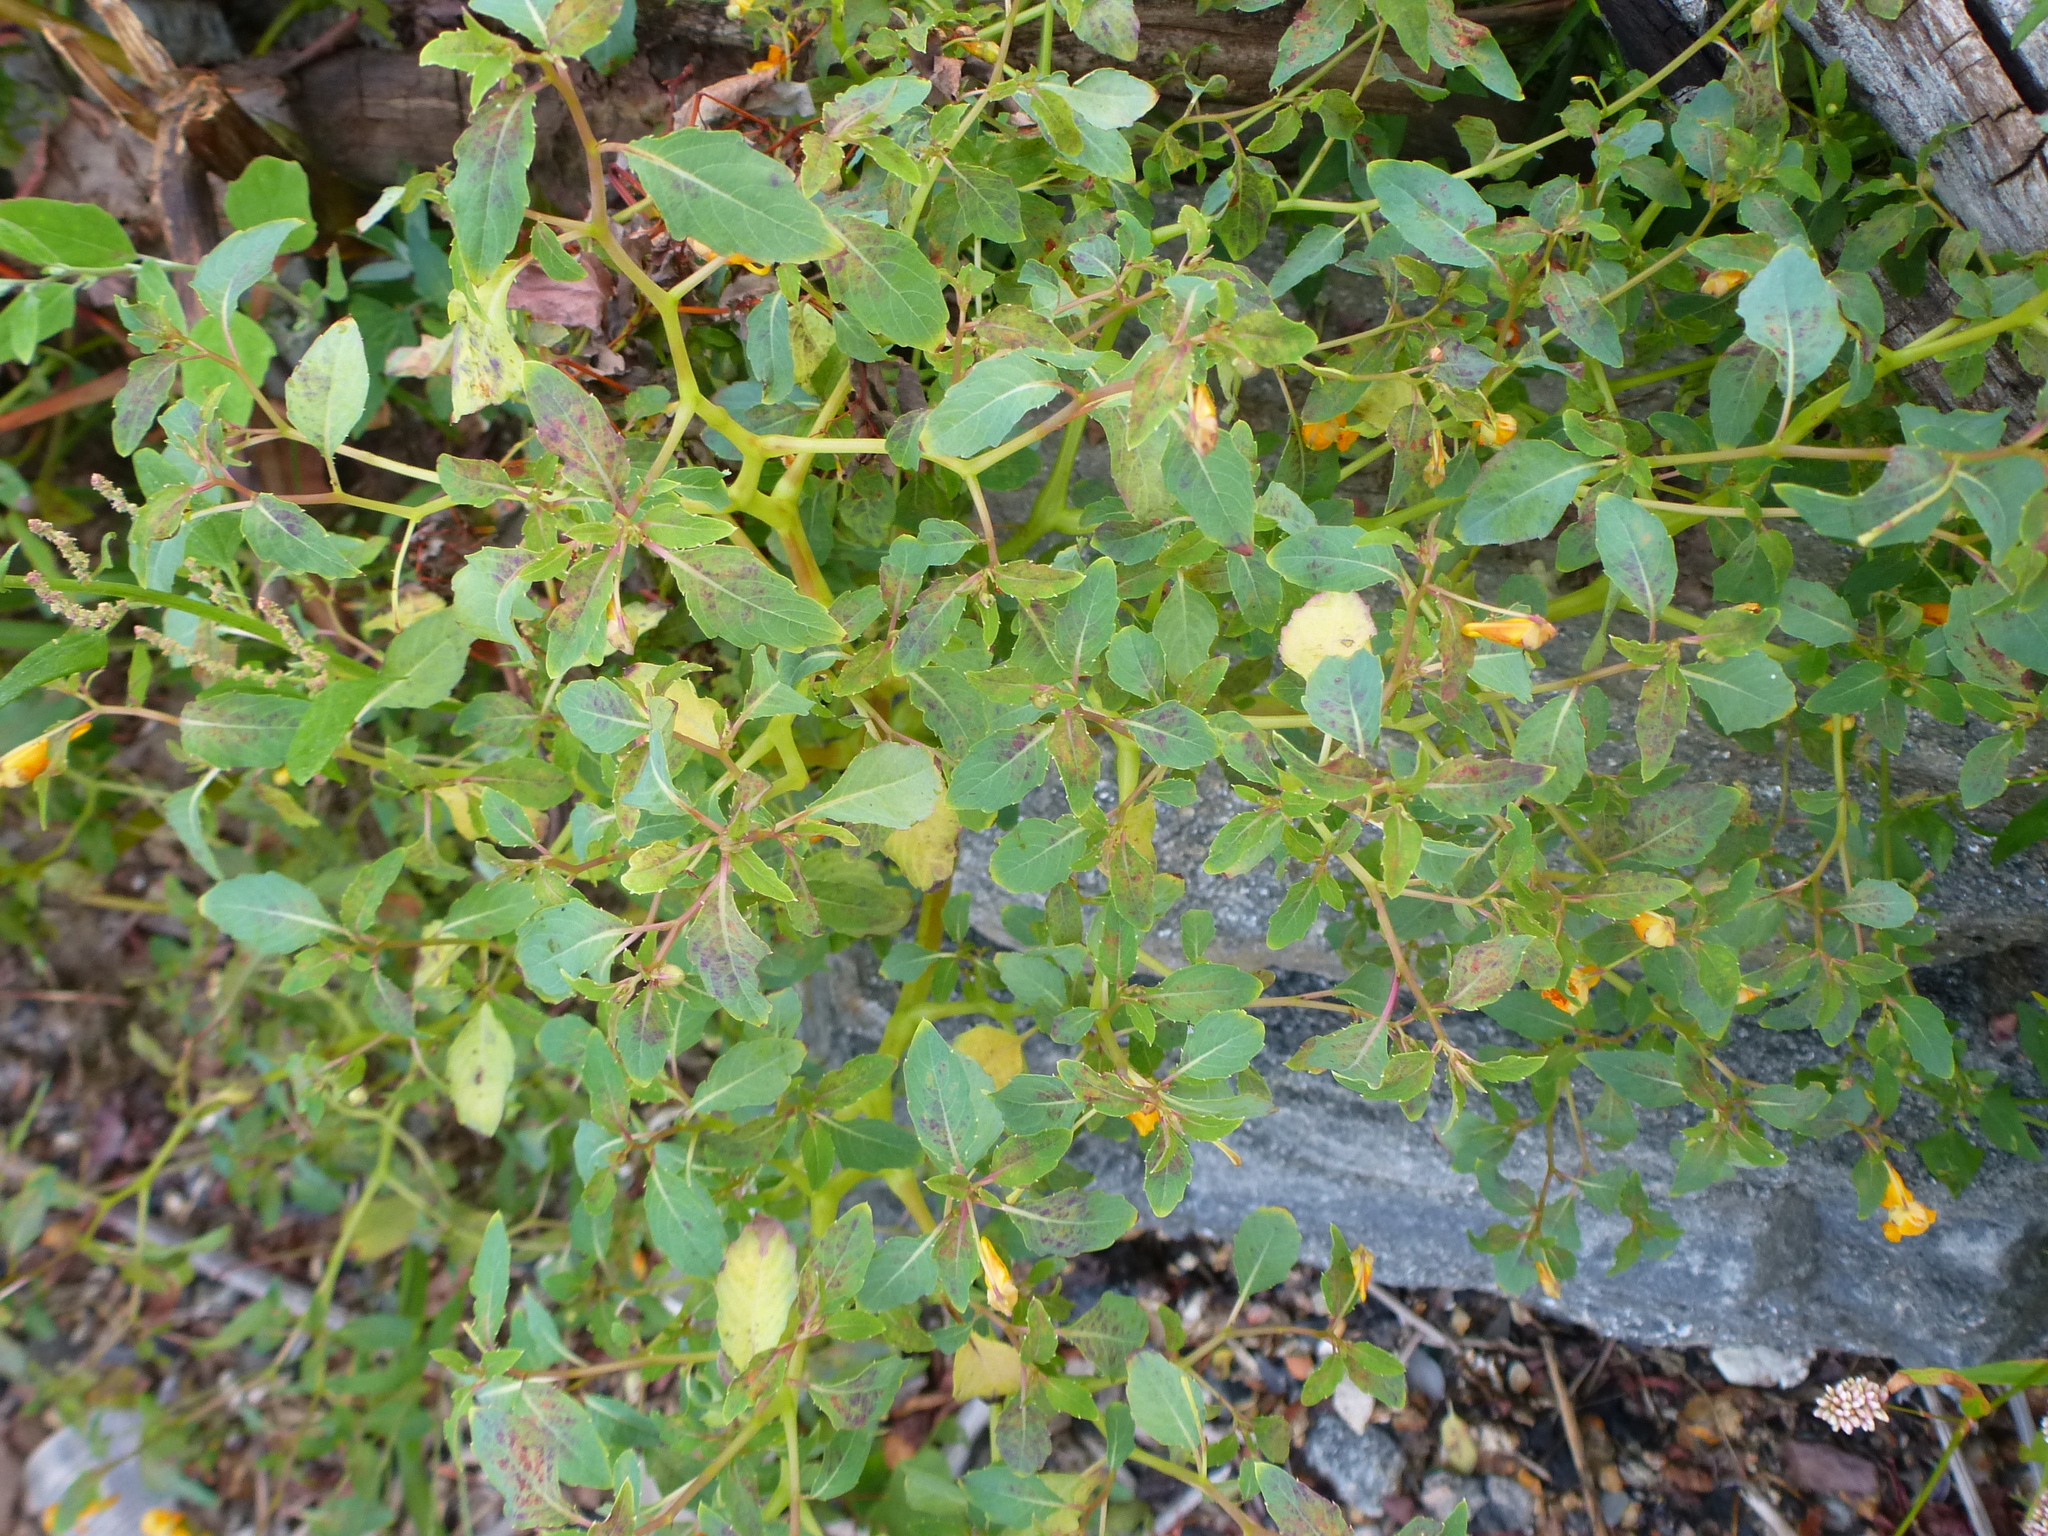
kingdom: Plantae
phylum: Tracheophyta
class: Magnoliopsida
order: Ericales
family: Balsaminaceae
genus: Impatiens
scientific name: Impatiens capensis
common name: Orange balsam
